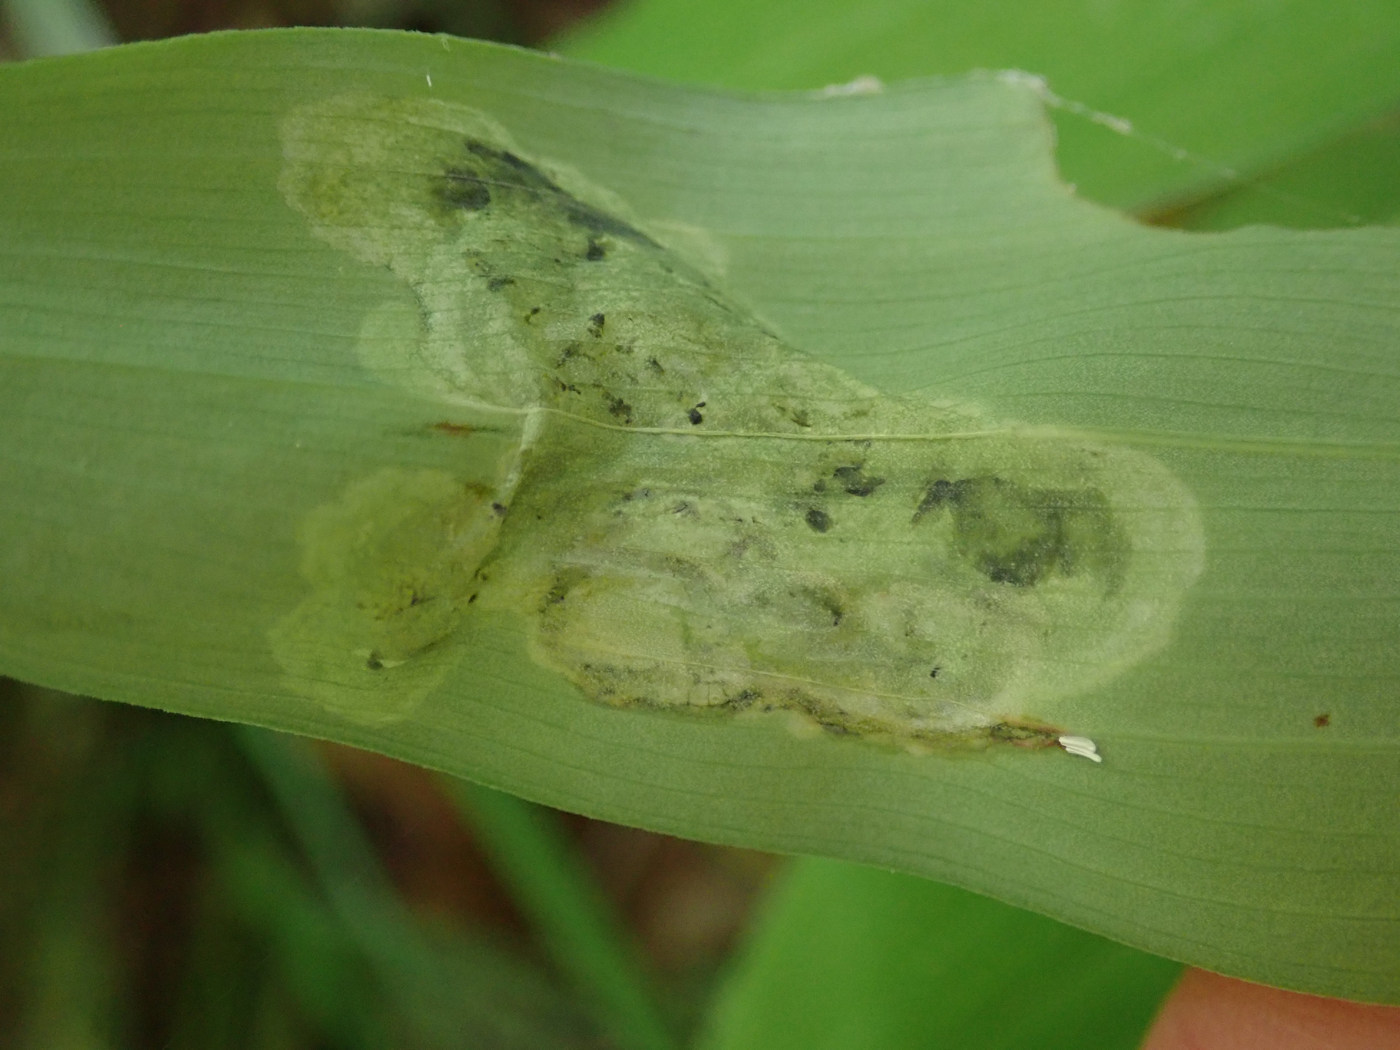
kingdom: Animalia
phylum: Arthropoda
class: Insecta
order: Diptera
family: Scathophagidae
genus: Leptopa
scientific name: Leptopa
